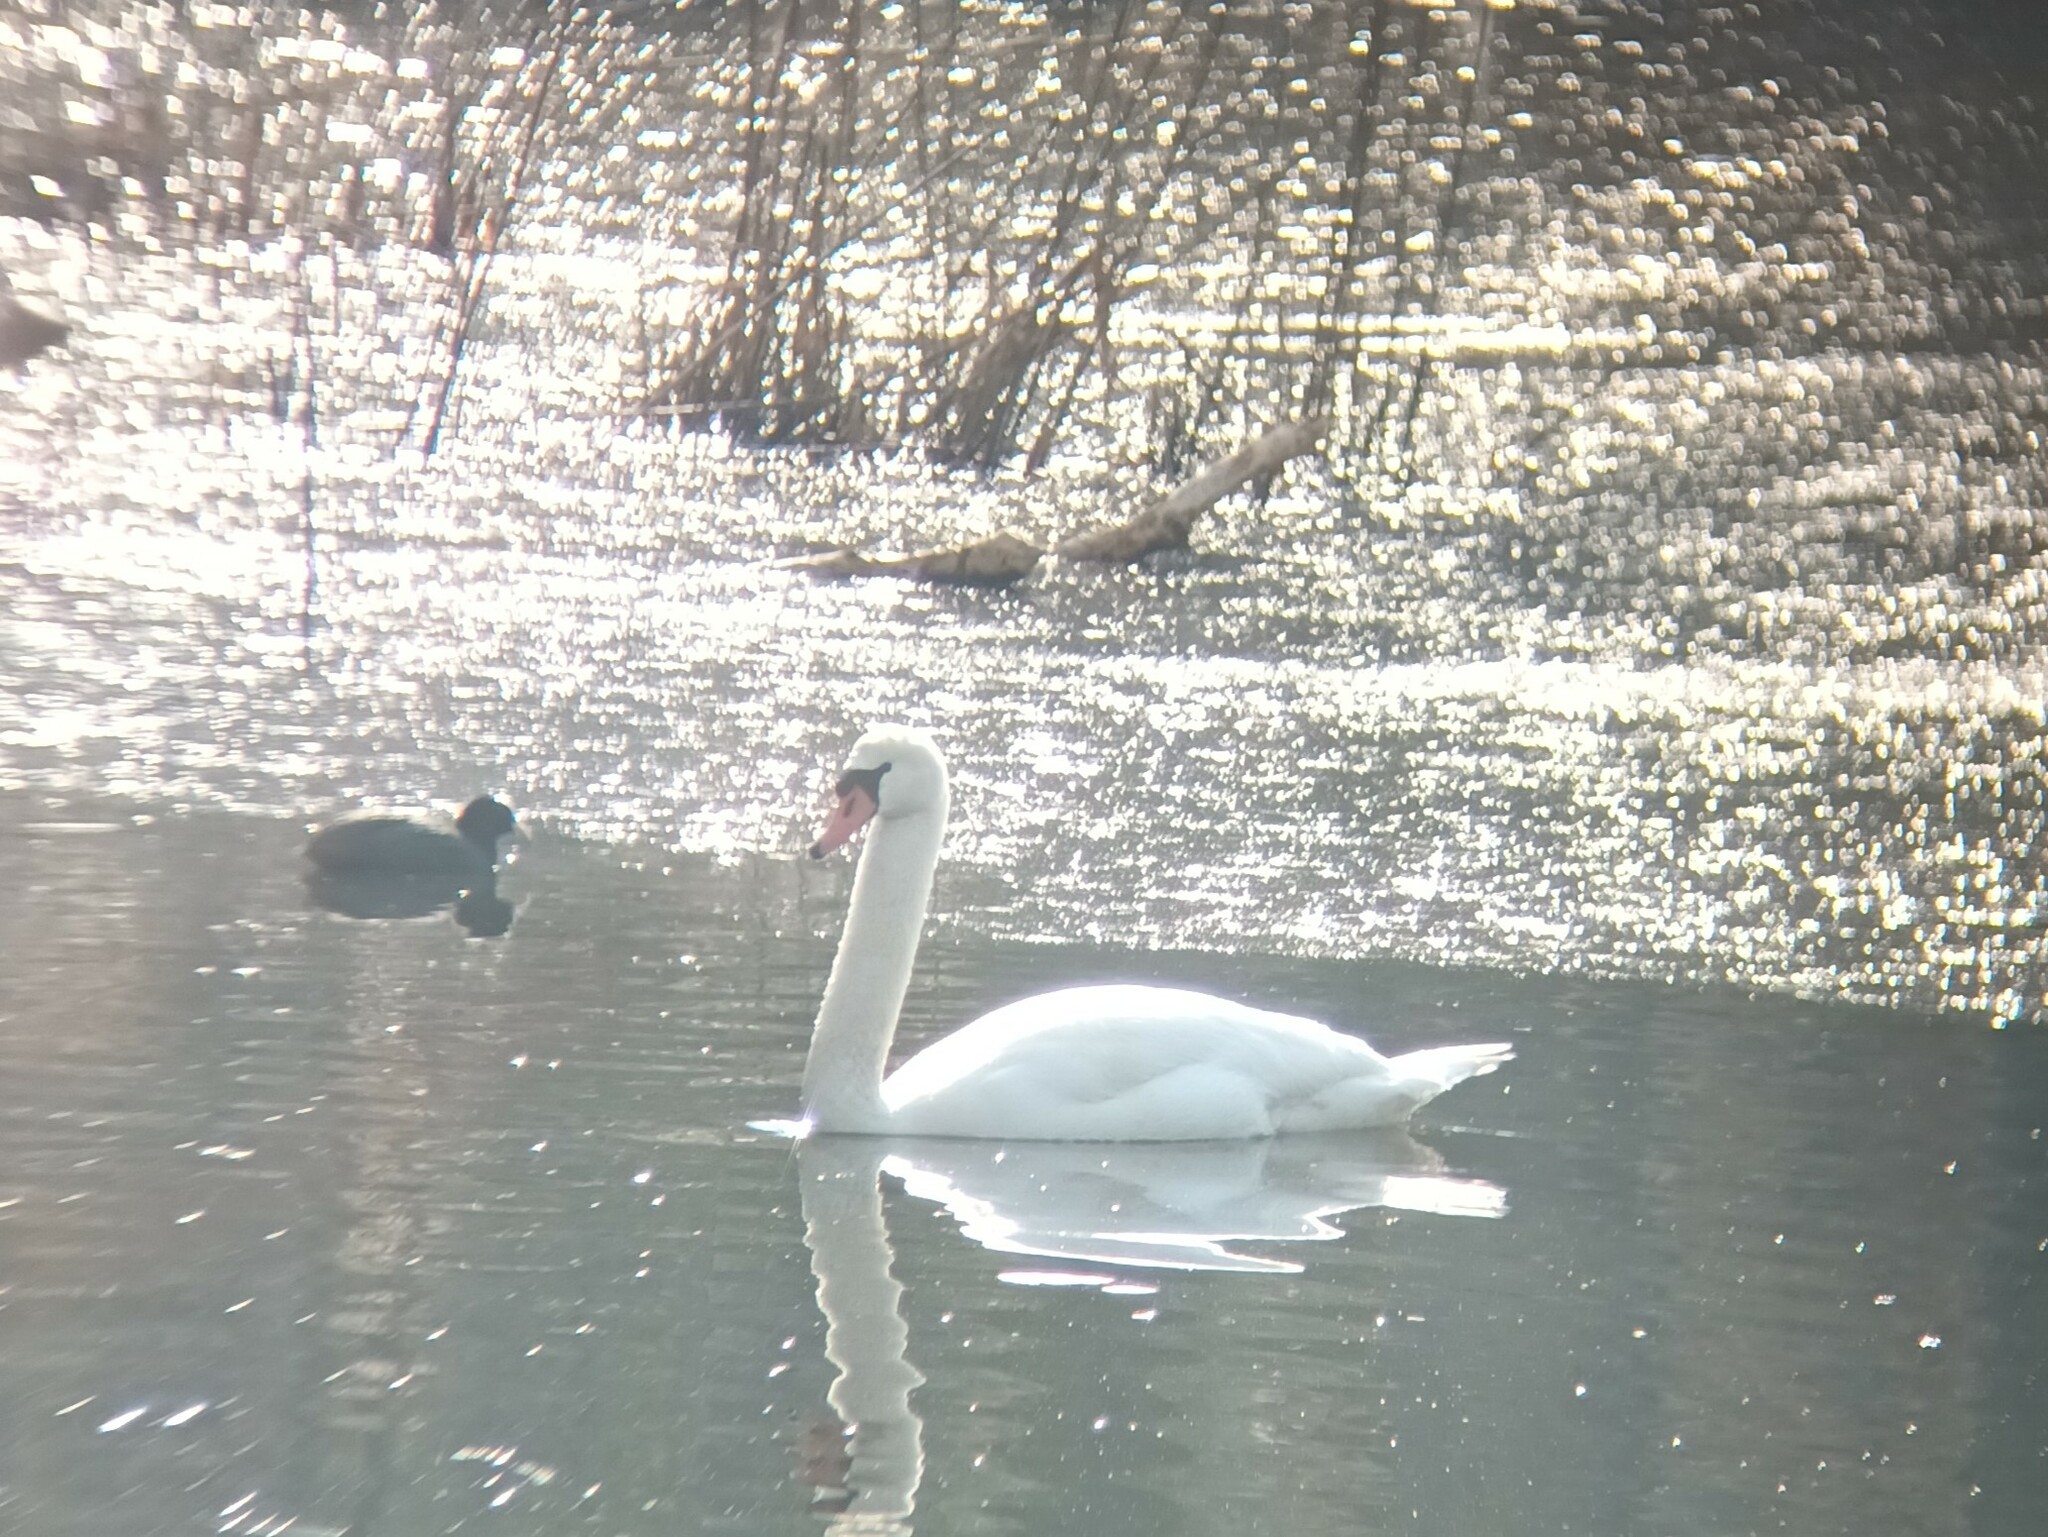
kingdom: Animalia
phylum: Chordata
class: Aves
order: Anseriformes
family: Anatidae
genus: Cygnus
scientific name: Cygnus olor
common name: Mute swan
